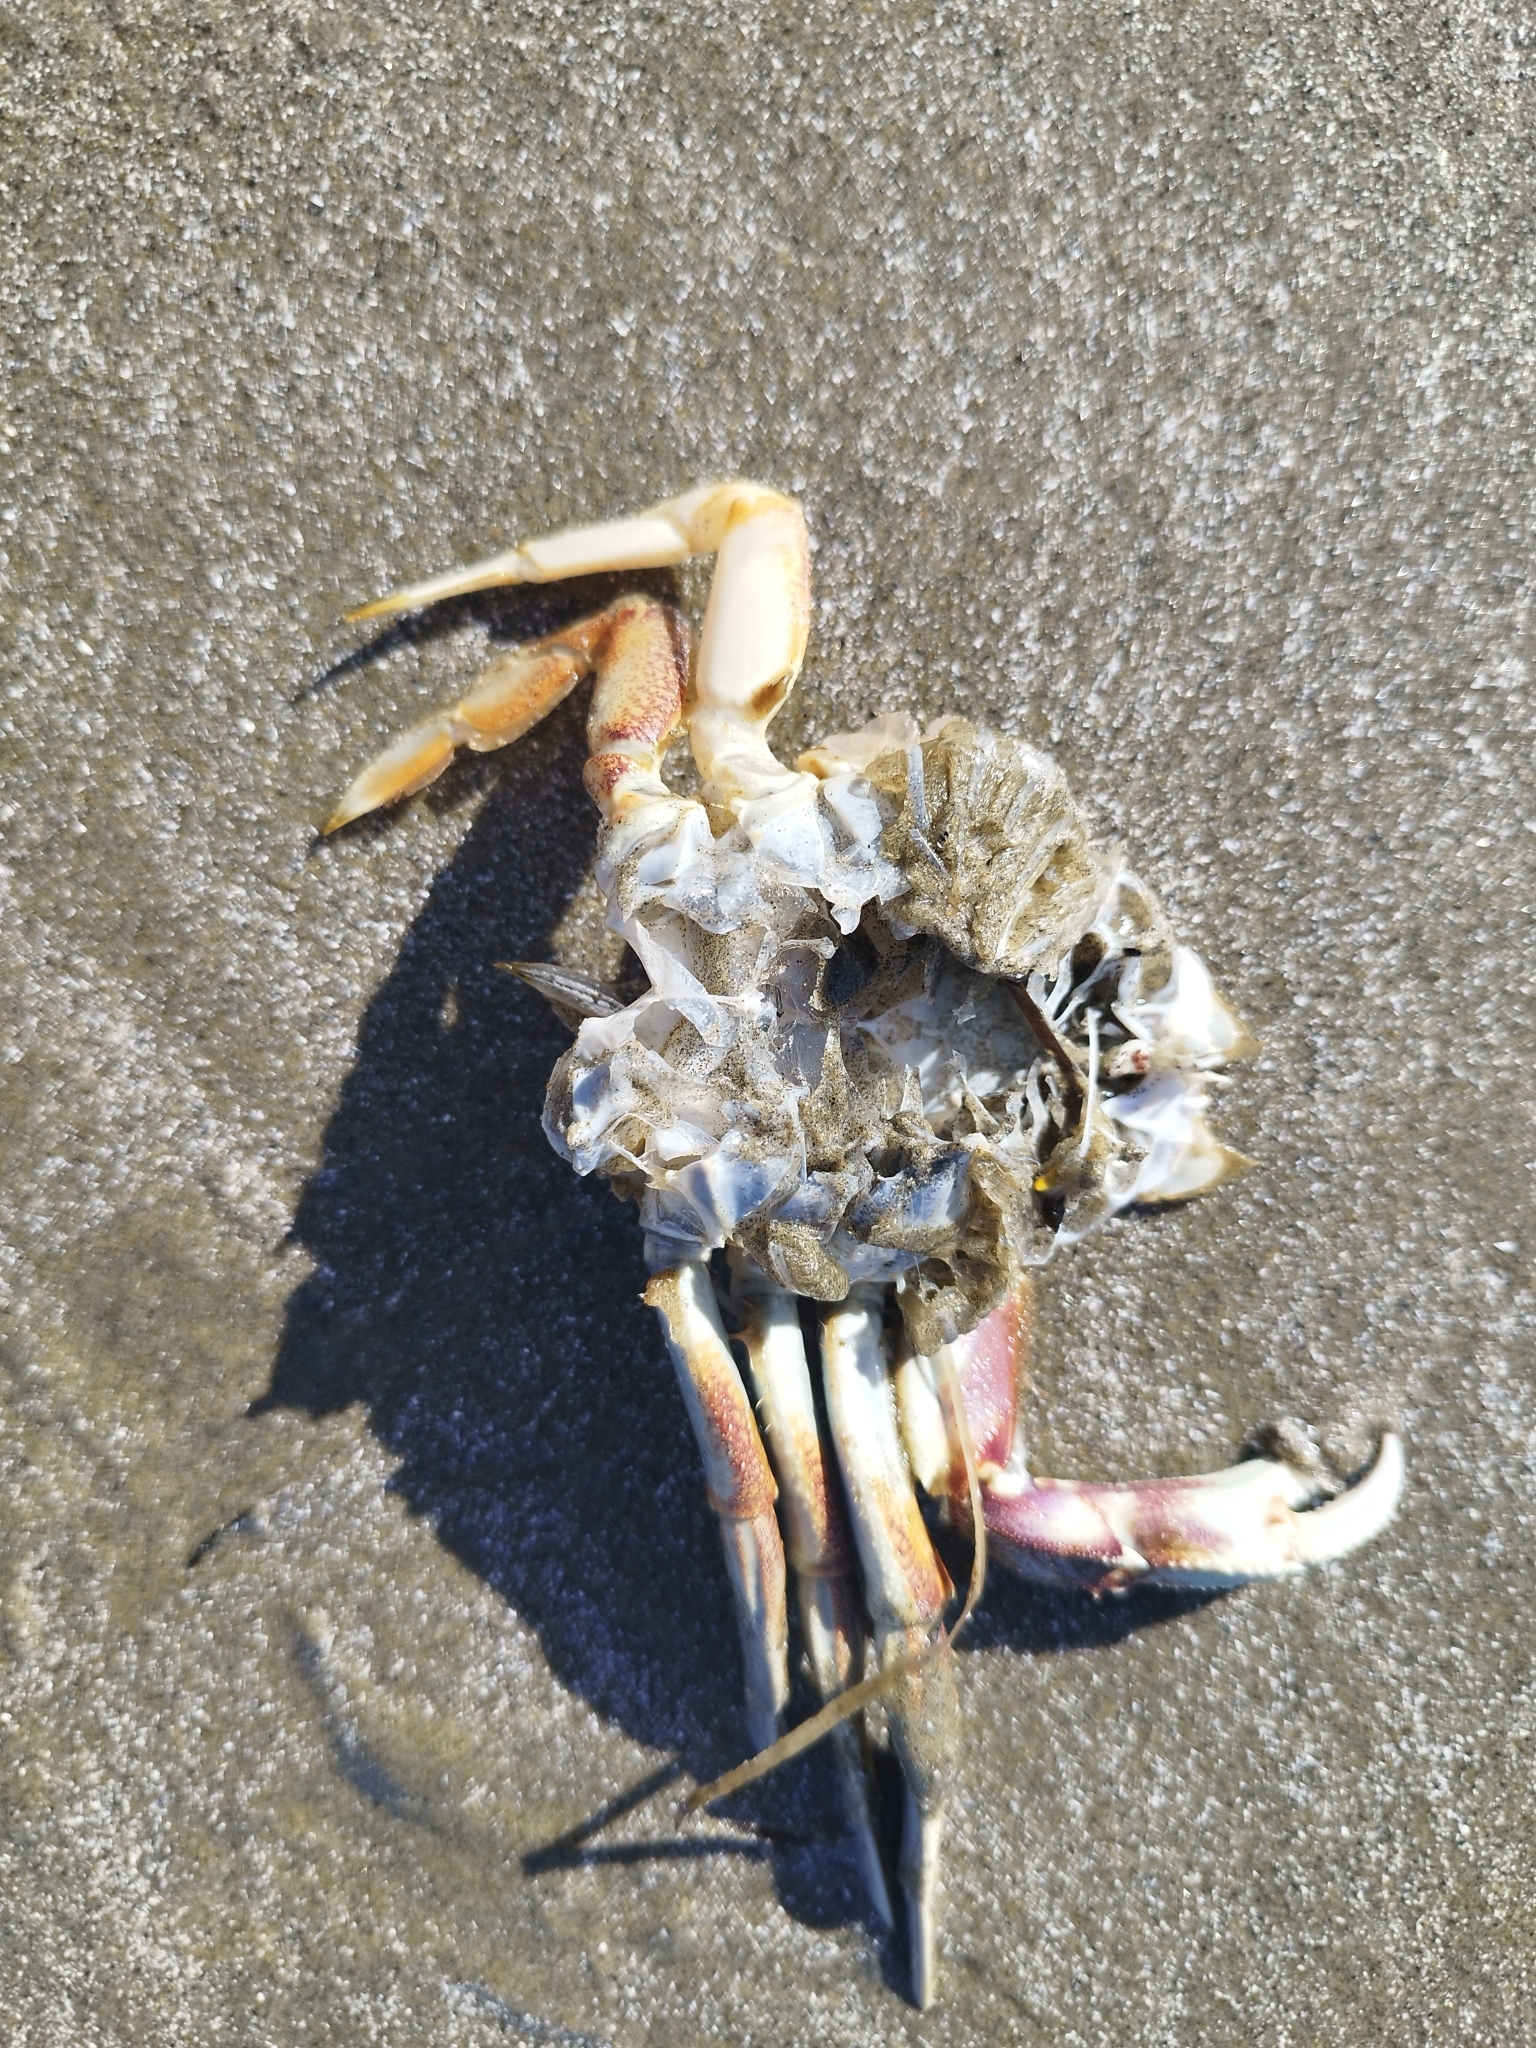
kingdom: Animalia
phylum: Arthropoda
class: Malacostraca
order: Decapoda
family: Cancridae
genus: Metacarcinus
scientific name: Metacarcinus magister
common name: Californian crab
